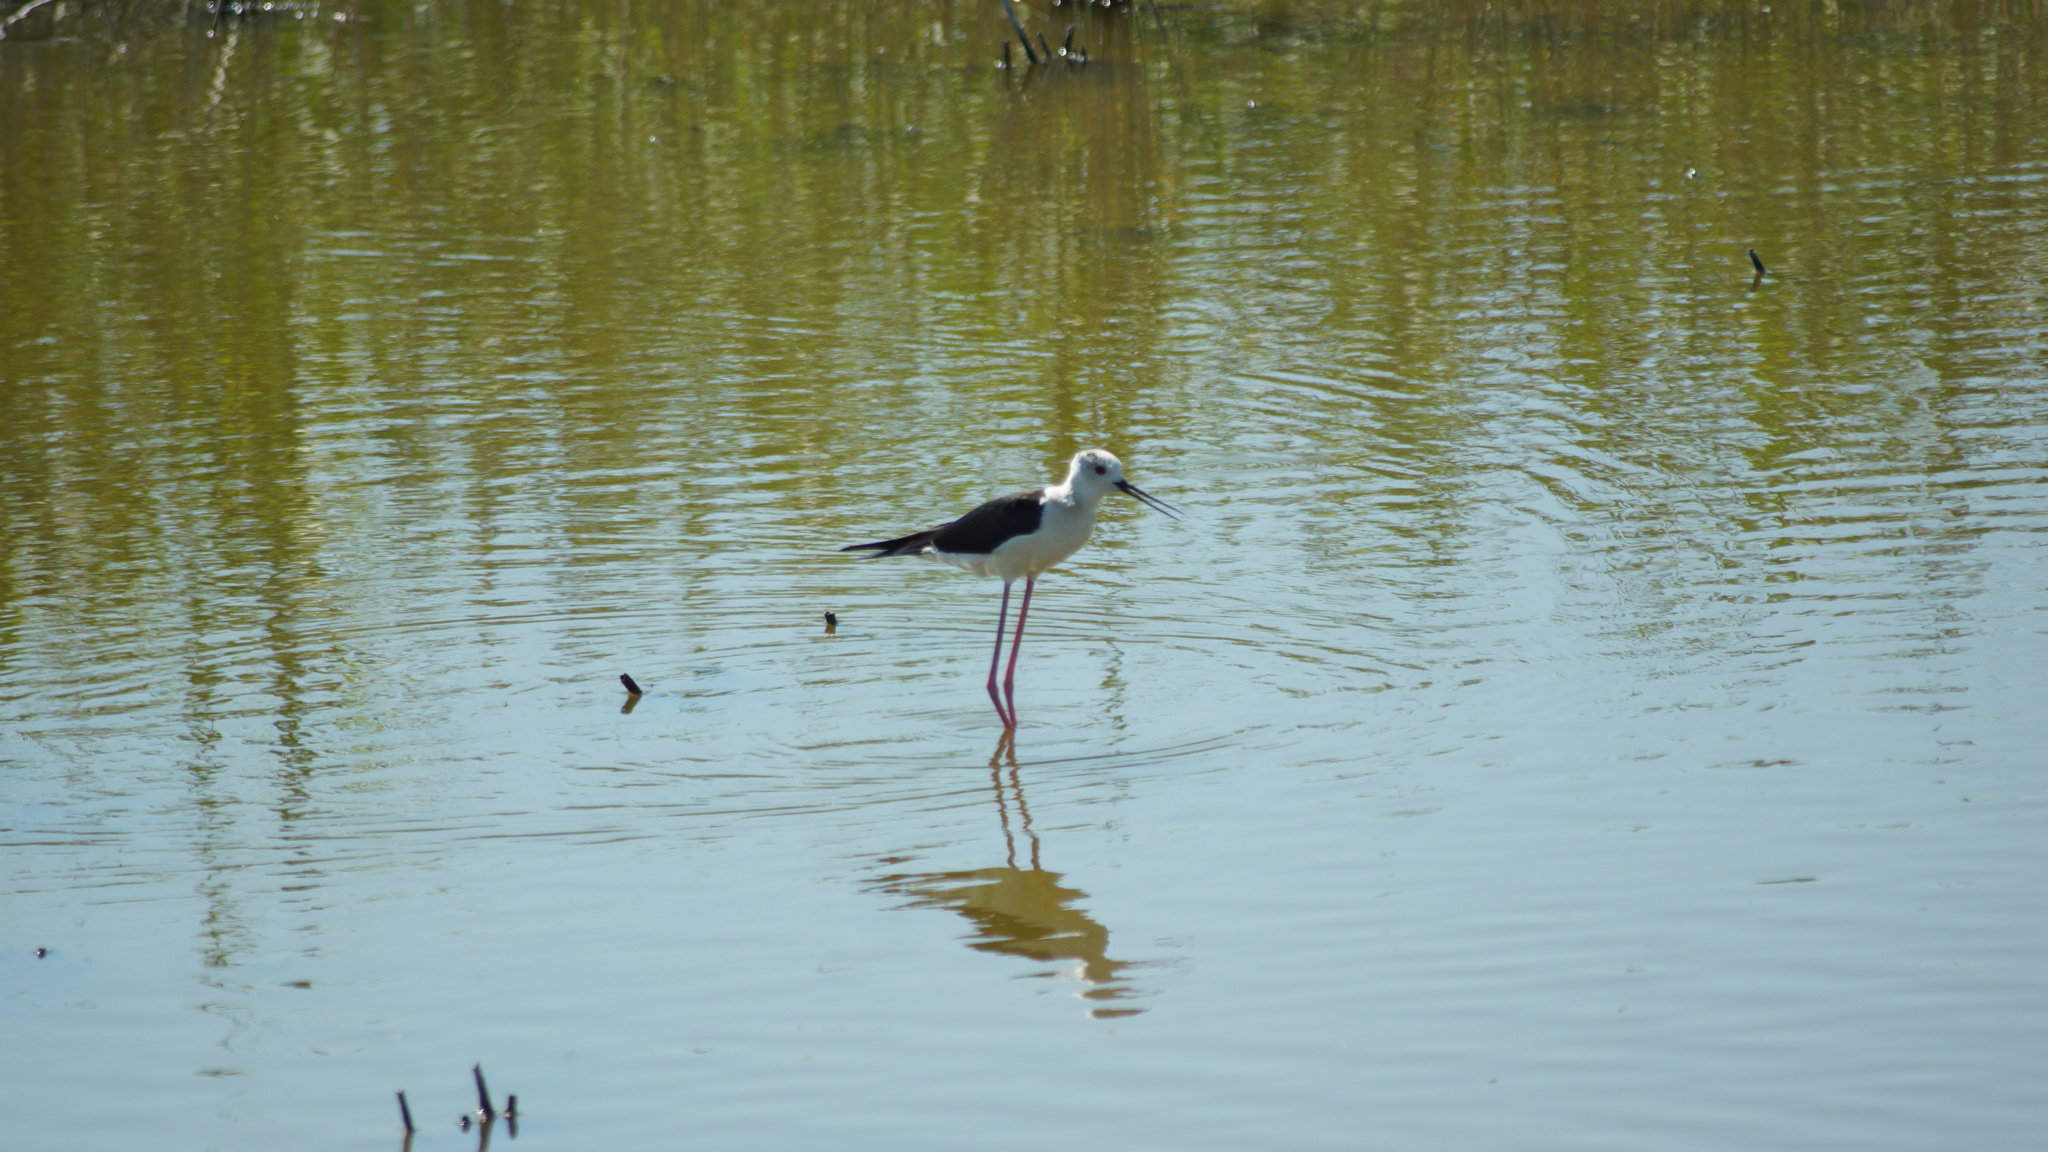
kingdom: Animalia
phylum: Chordata
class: Aves
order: Charadriiformes
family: Recurvirostridae
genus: Himantopus
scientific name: Himantopus himantopus
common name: Black-winged stilt
